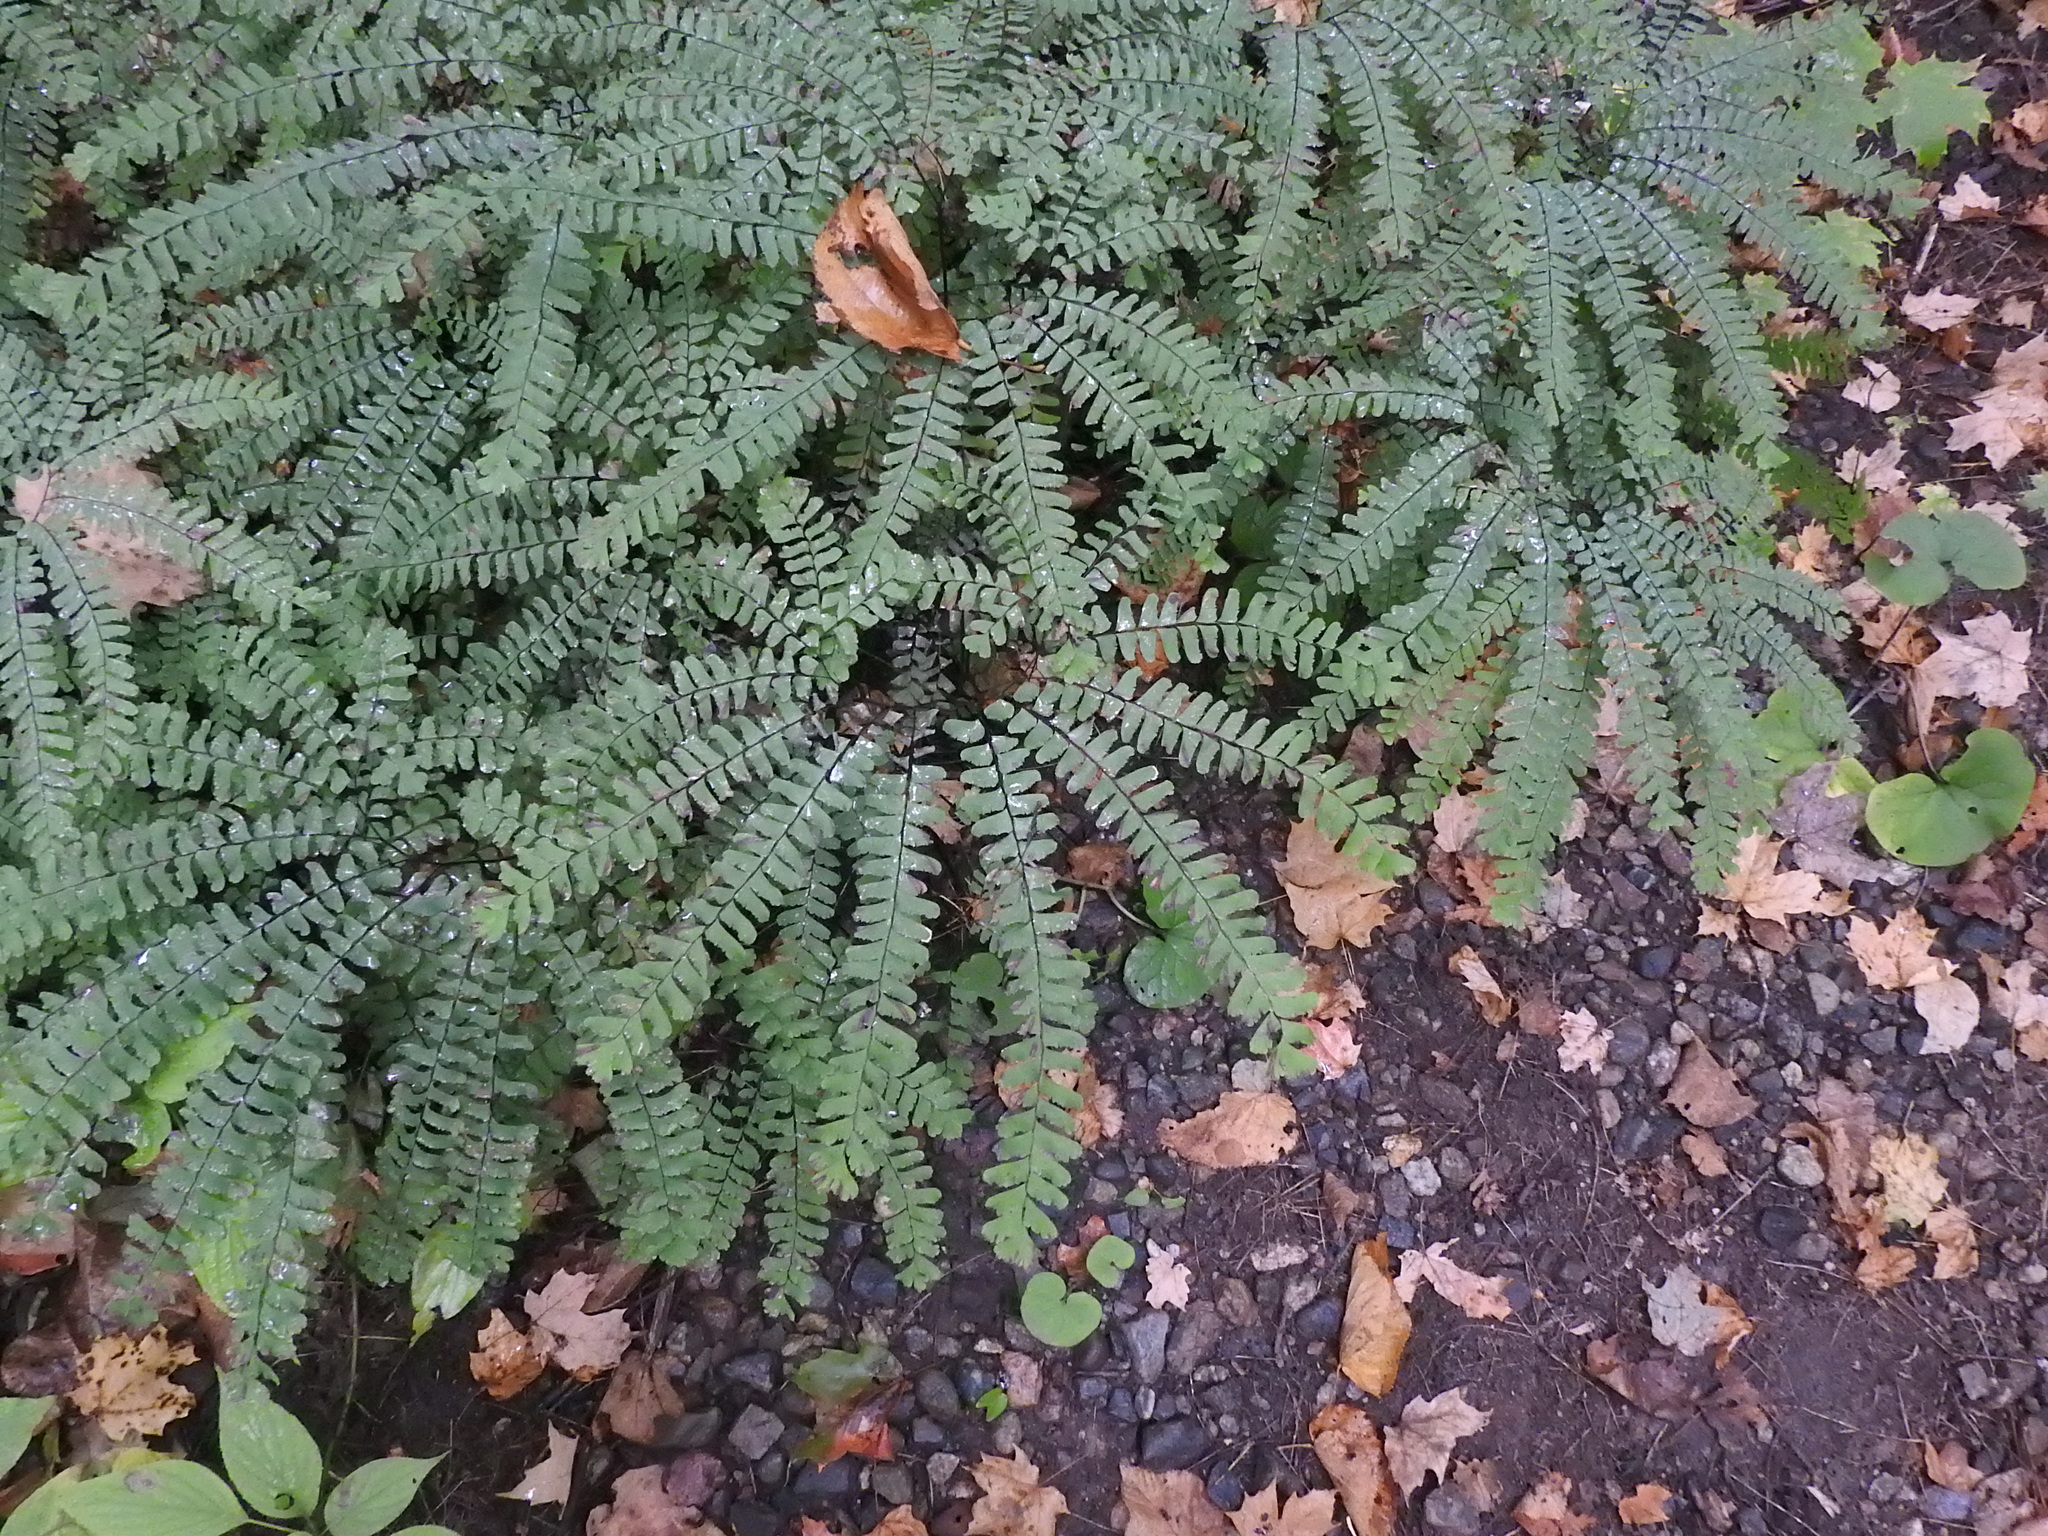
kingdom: Plantae
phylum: Tracheophyta
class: Polypodiopsida
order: Polypodiales
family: Pteridaceae
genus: Adiantum
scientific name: Adiantum pedatum
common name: Five-finger fern
